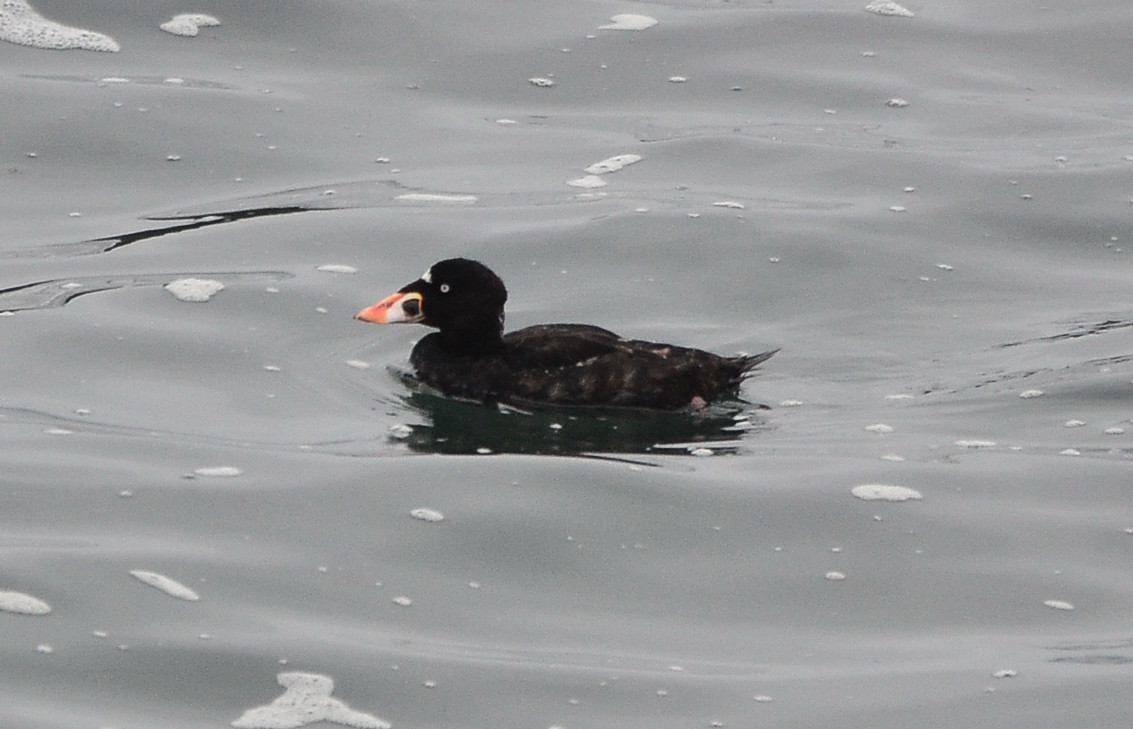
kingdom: Animalia
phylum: Chordata
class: Aves
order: Anseriformes
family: Anatidae
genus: Melanitta
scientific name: Melanitta perspicillata
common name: Surf scoter
